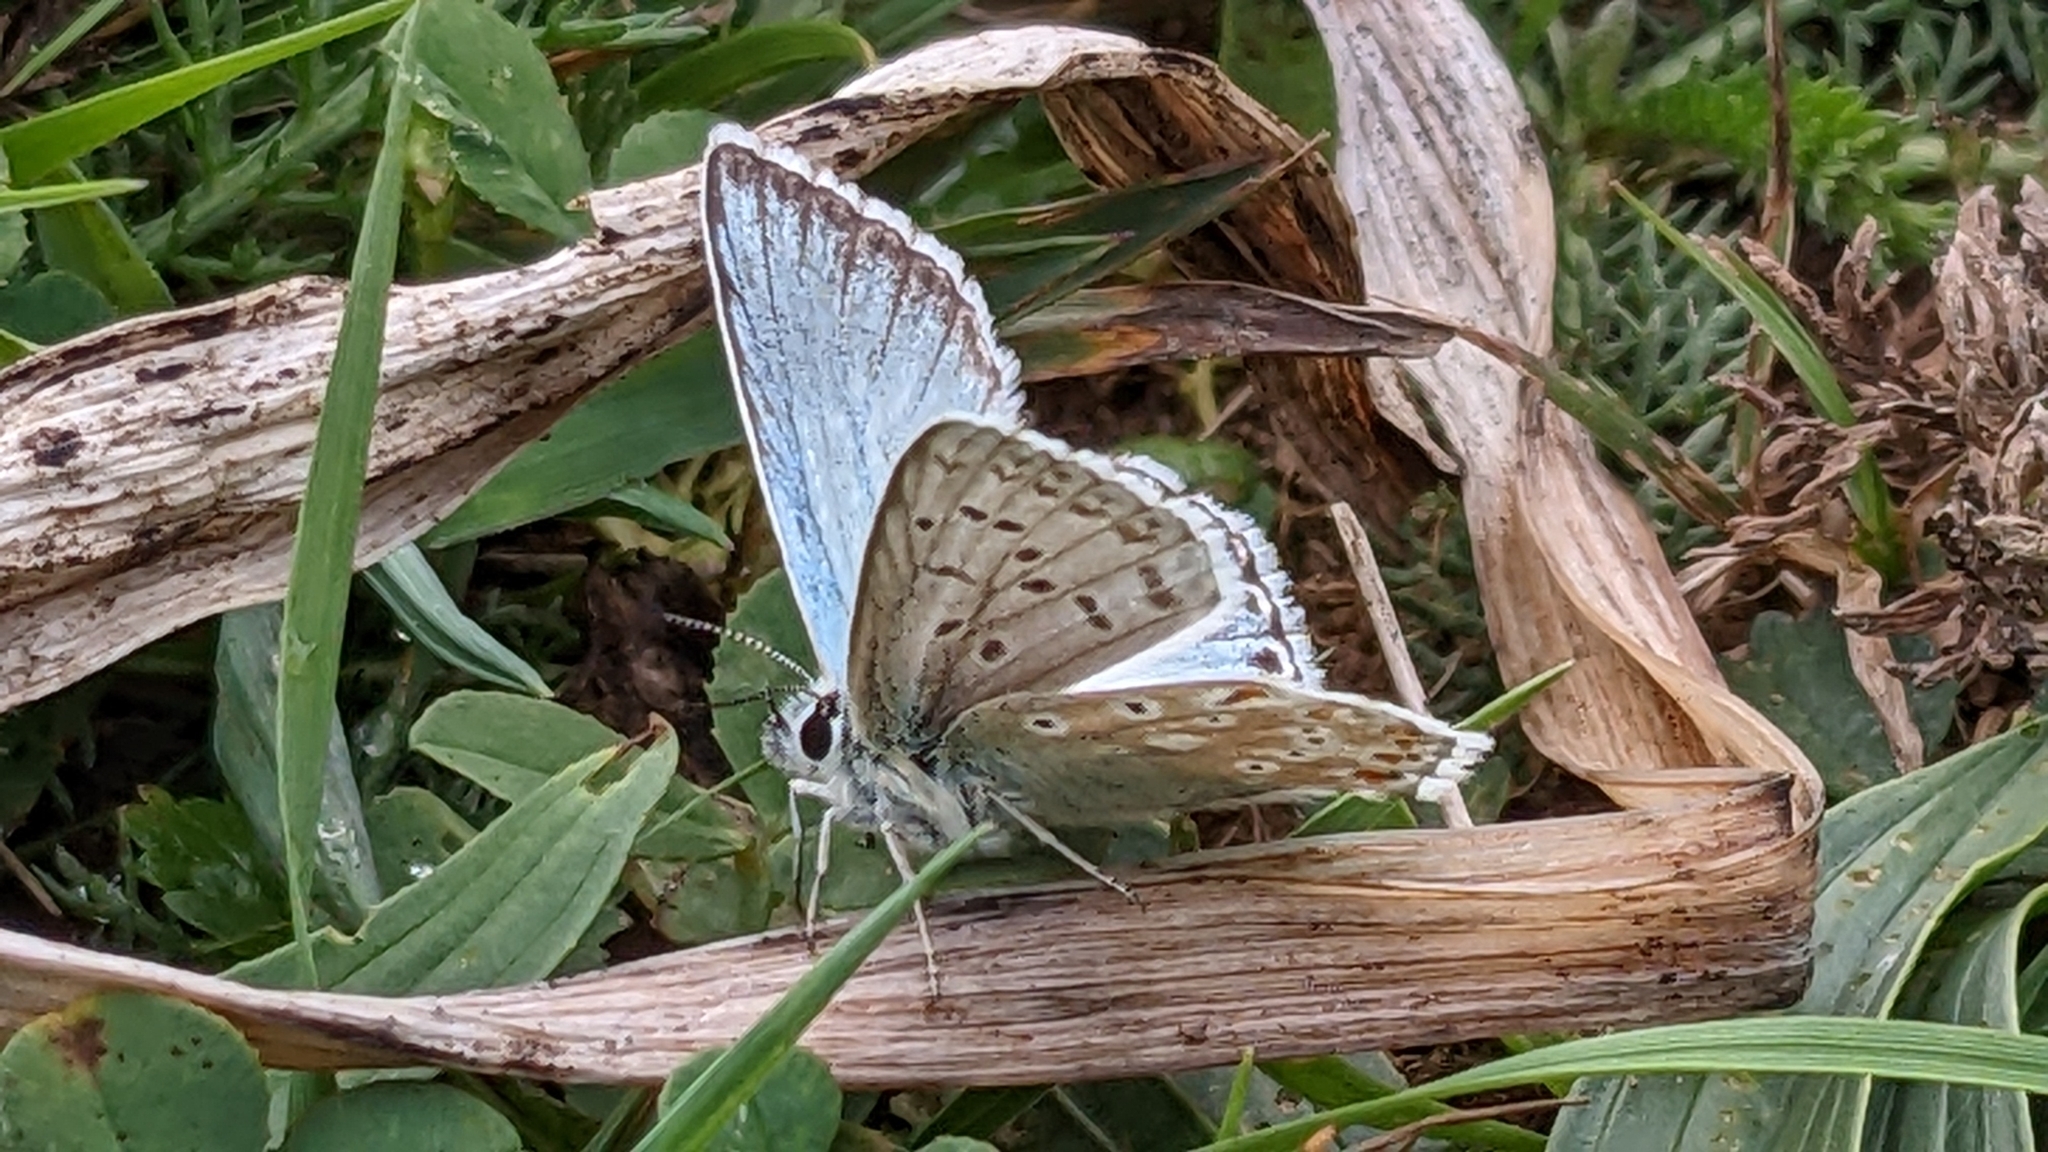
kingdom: Animalia
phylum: Arthropoda
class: Insecta
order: Lepidoptera
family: Lycaenidae
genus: Lysandra
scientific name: Lysandra coridon
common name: Chalkhill blue
